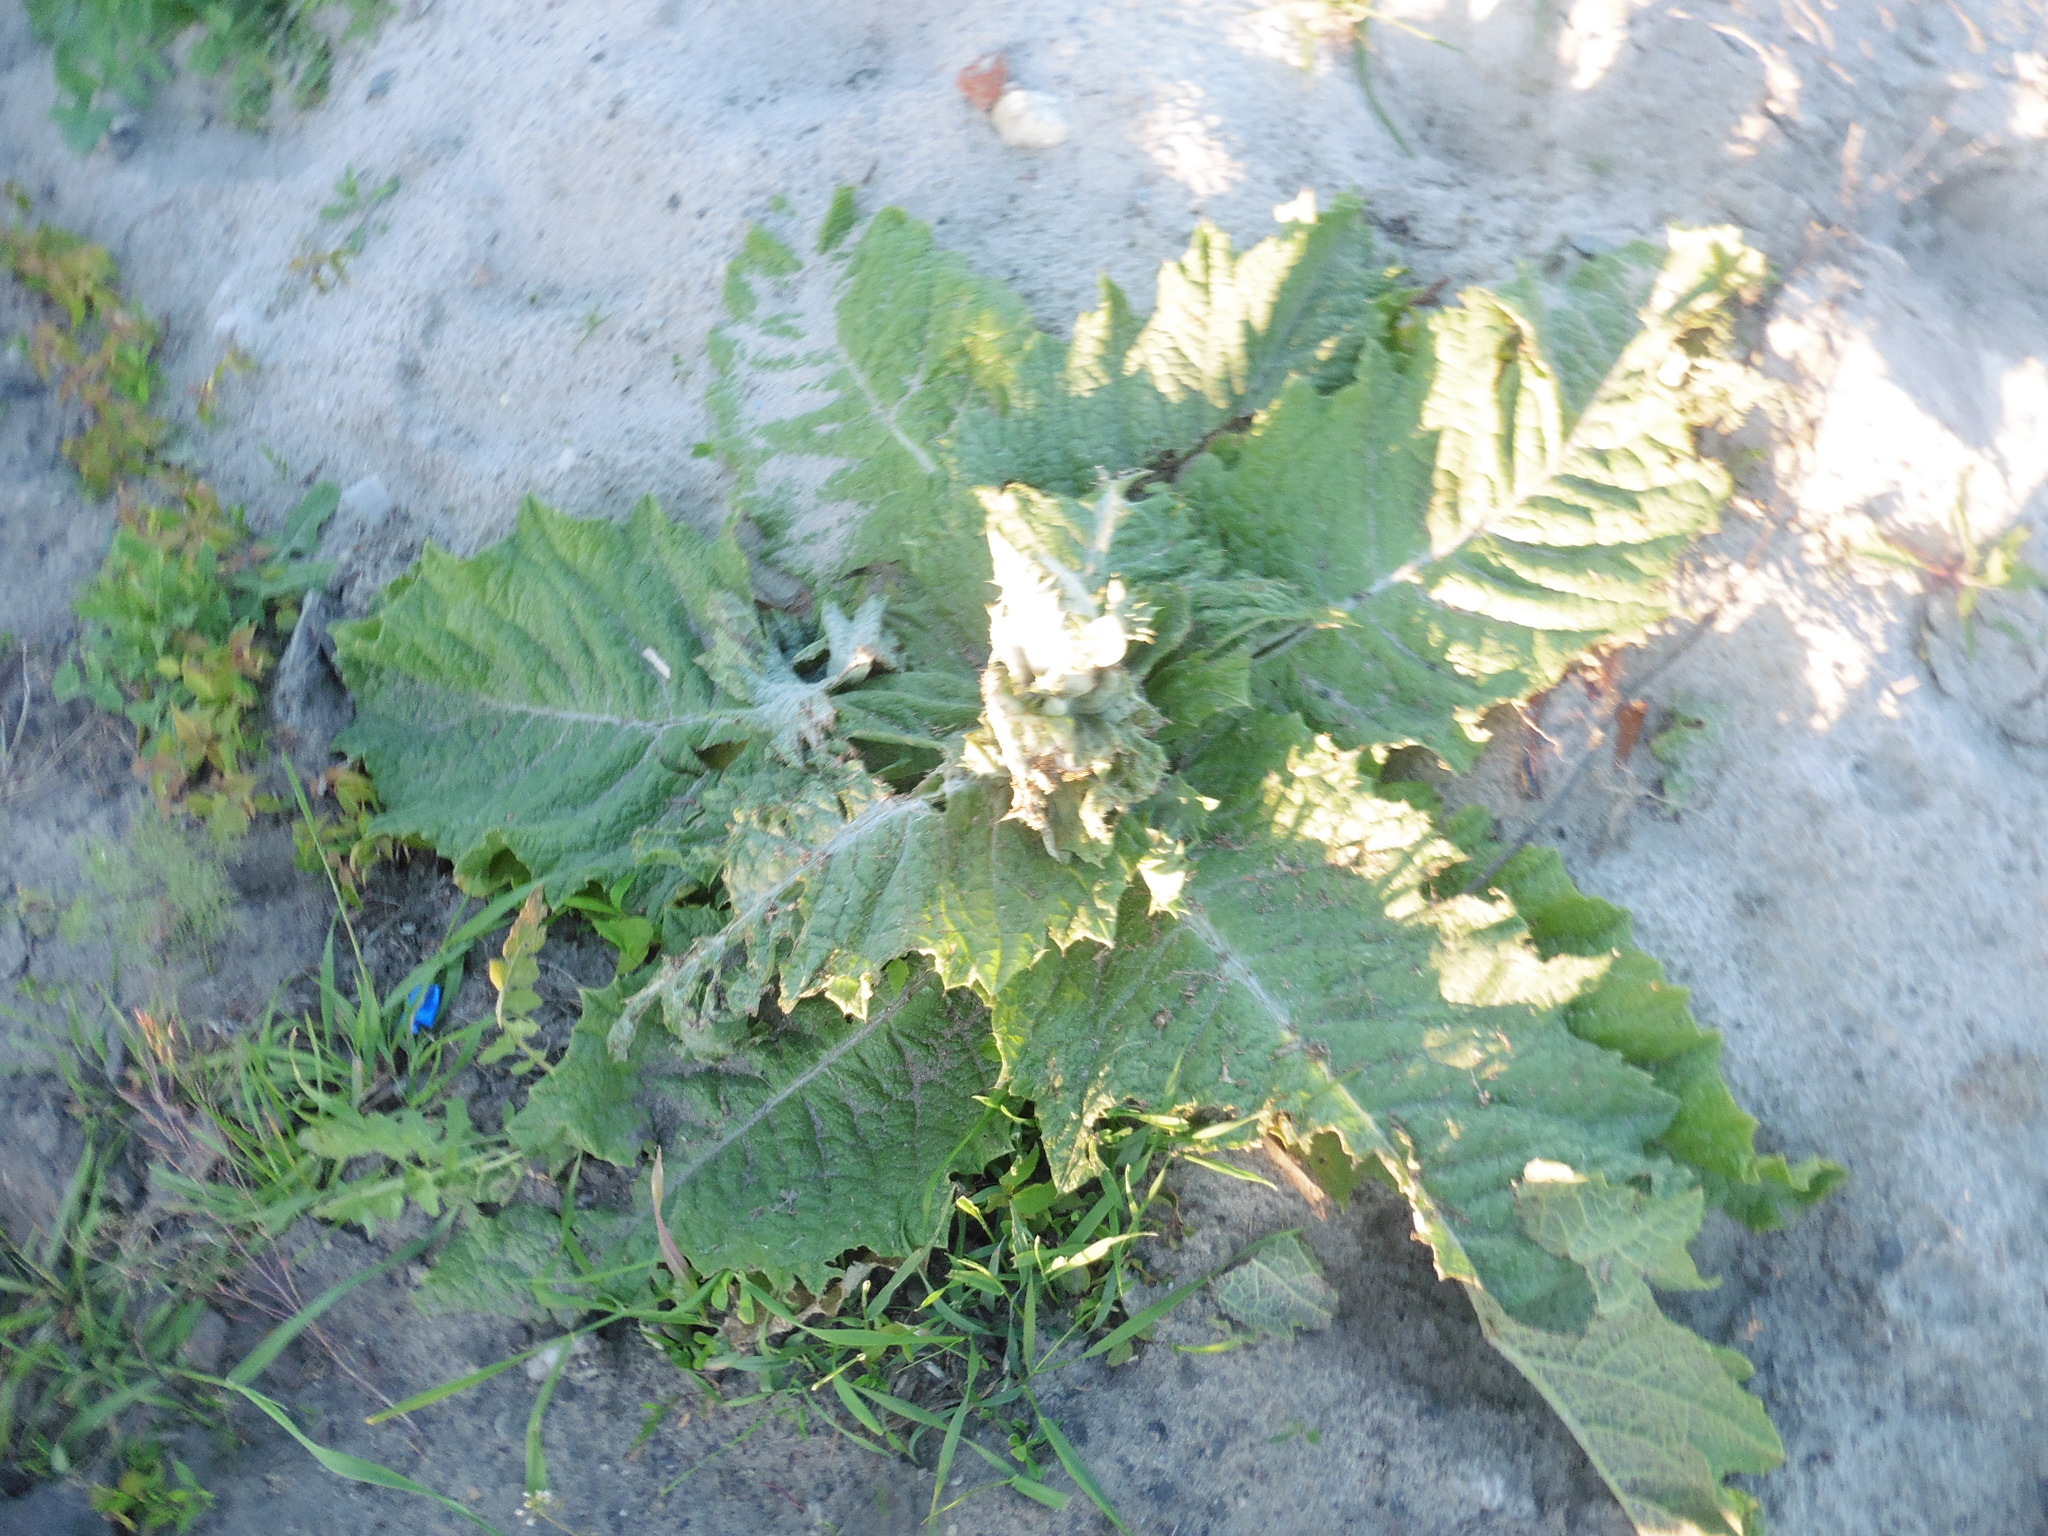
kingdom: Plantae
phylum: Tracheophyta
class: Magnoliopsida
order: Asterales
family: Asteraceae
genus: Onopordum
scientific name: Onopordum acanthium
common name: Scotch thistle
